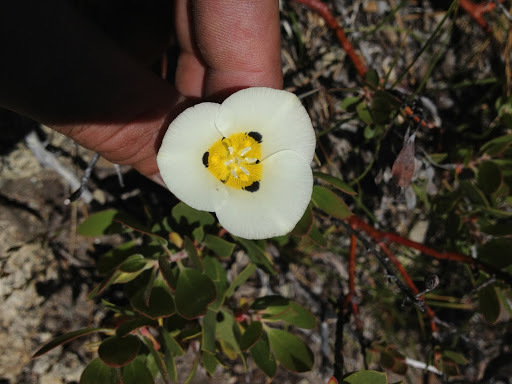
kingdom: Plantae
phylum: Tracheophyta
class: Liliopsida
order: Liliales
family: Liliaceae
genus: Calochortus
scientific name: Calochortus leichtlinii
